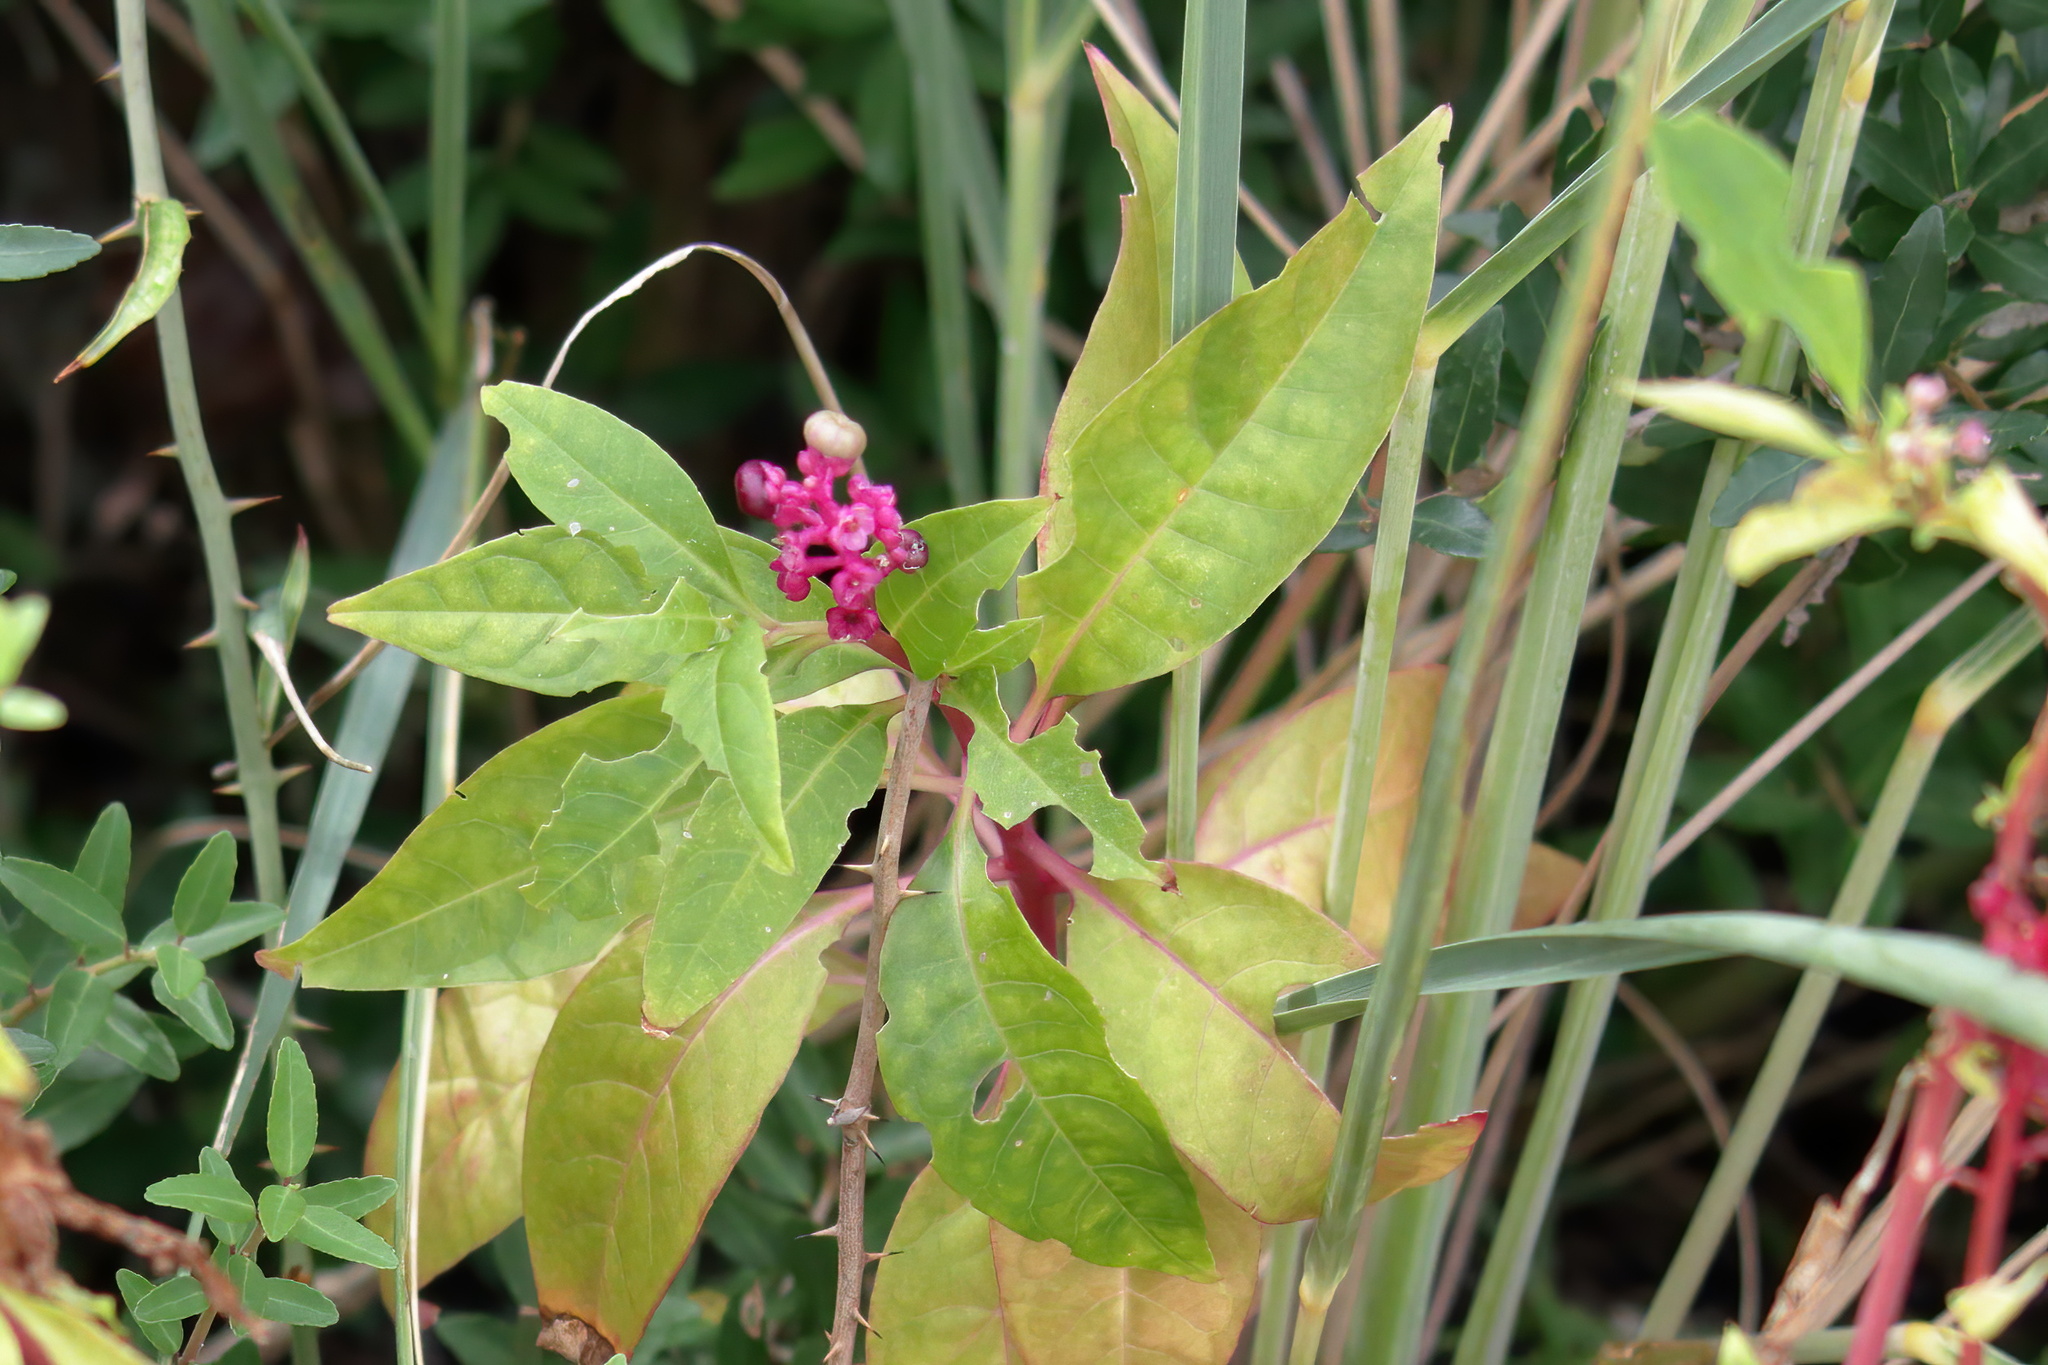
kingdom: Plantae
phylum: Tracheophyta
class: Magnoliopsida
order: Caryophyllales
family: Phytolaccaceae
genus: Phytolacca
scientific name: Phytolacca americana
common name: American pokeweed
